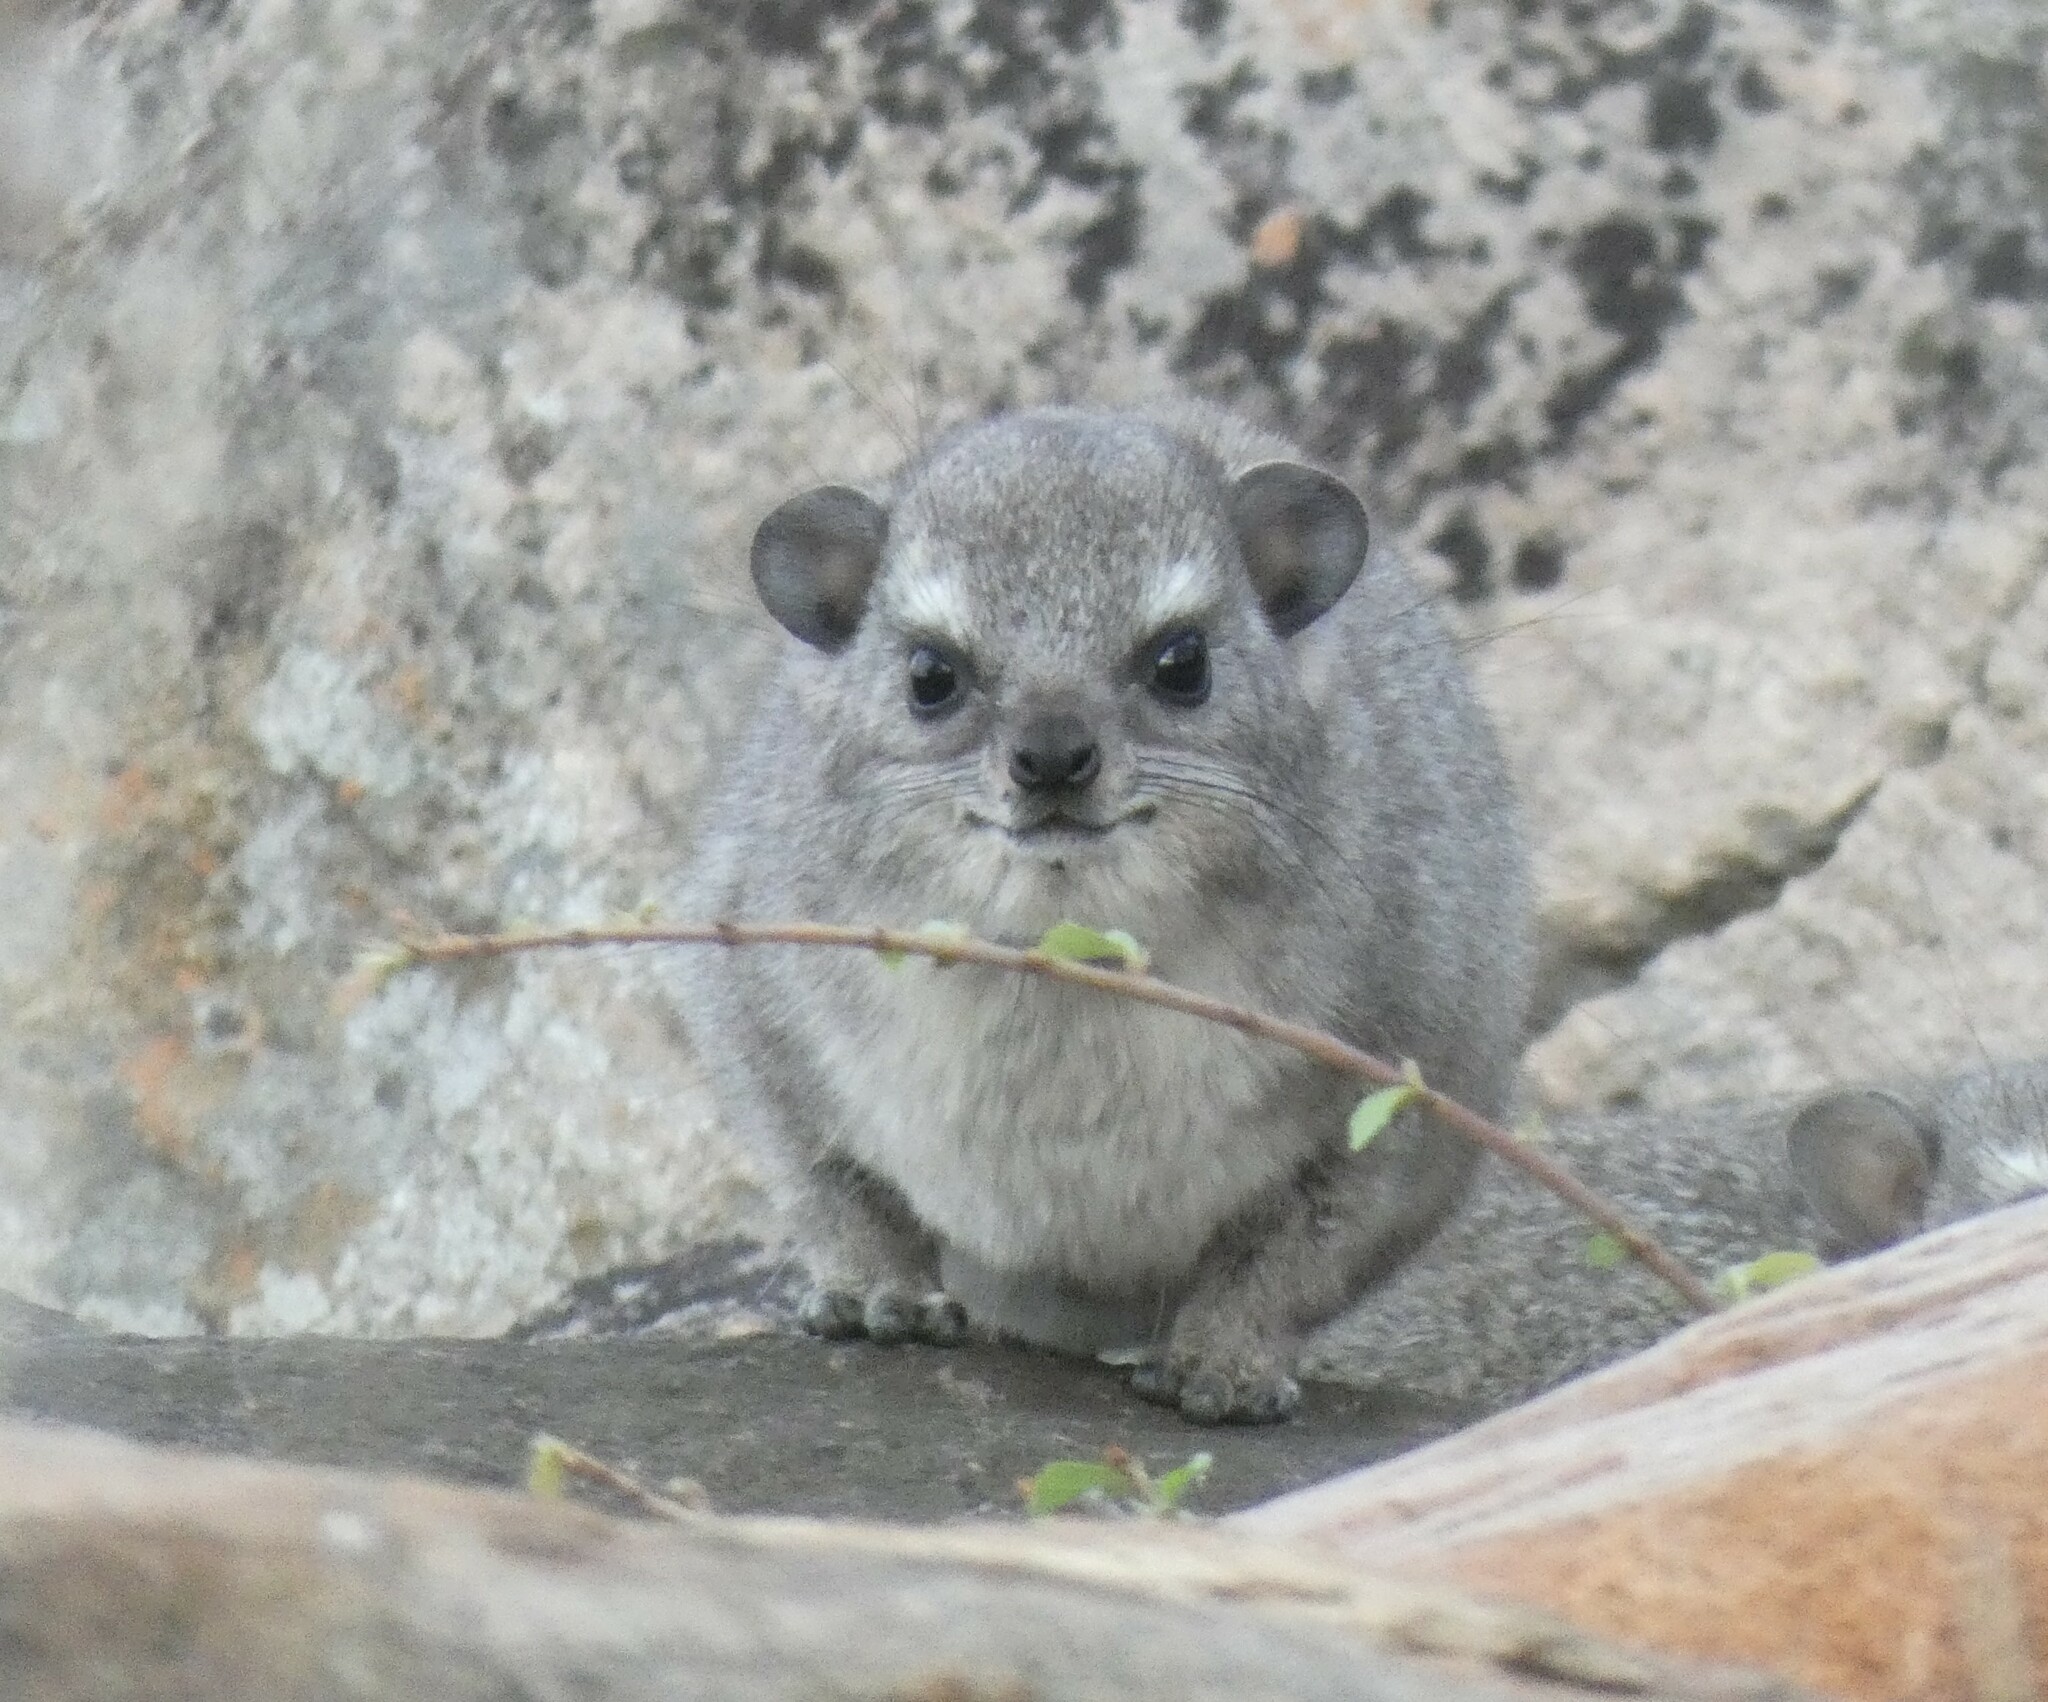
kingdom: Animalia
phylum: Chordata
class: Mammalia
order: Hyracoidea
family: Procaviidae
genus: Heterohyrax
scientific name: Heterohyrax brucei
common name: Bush hyrax
